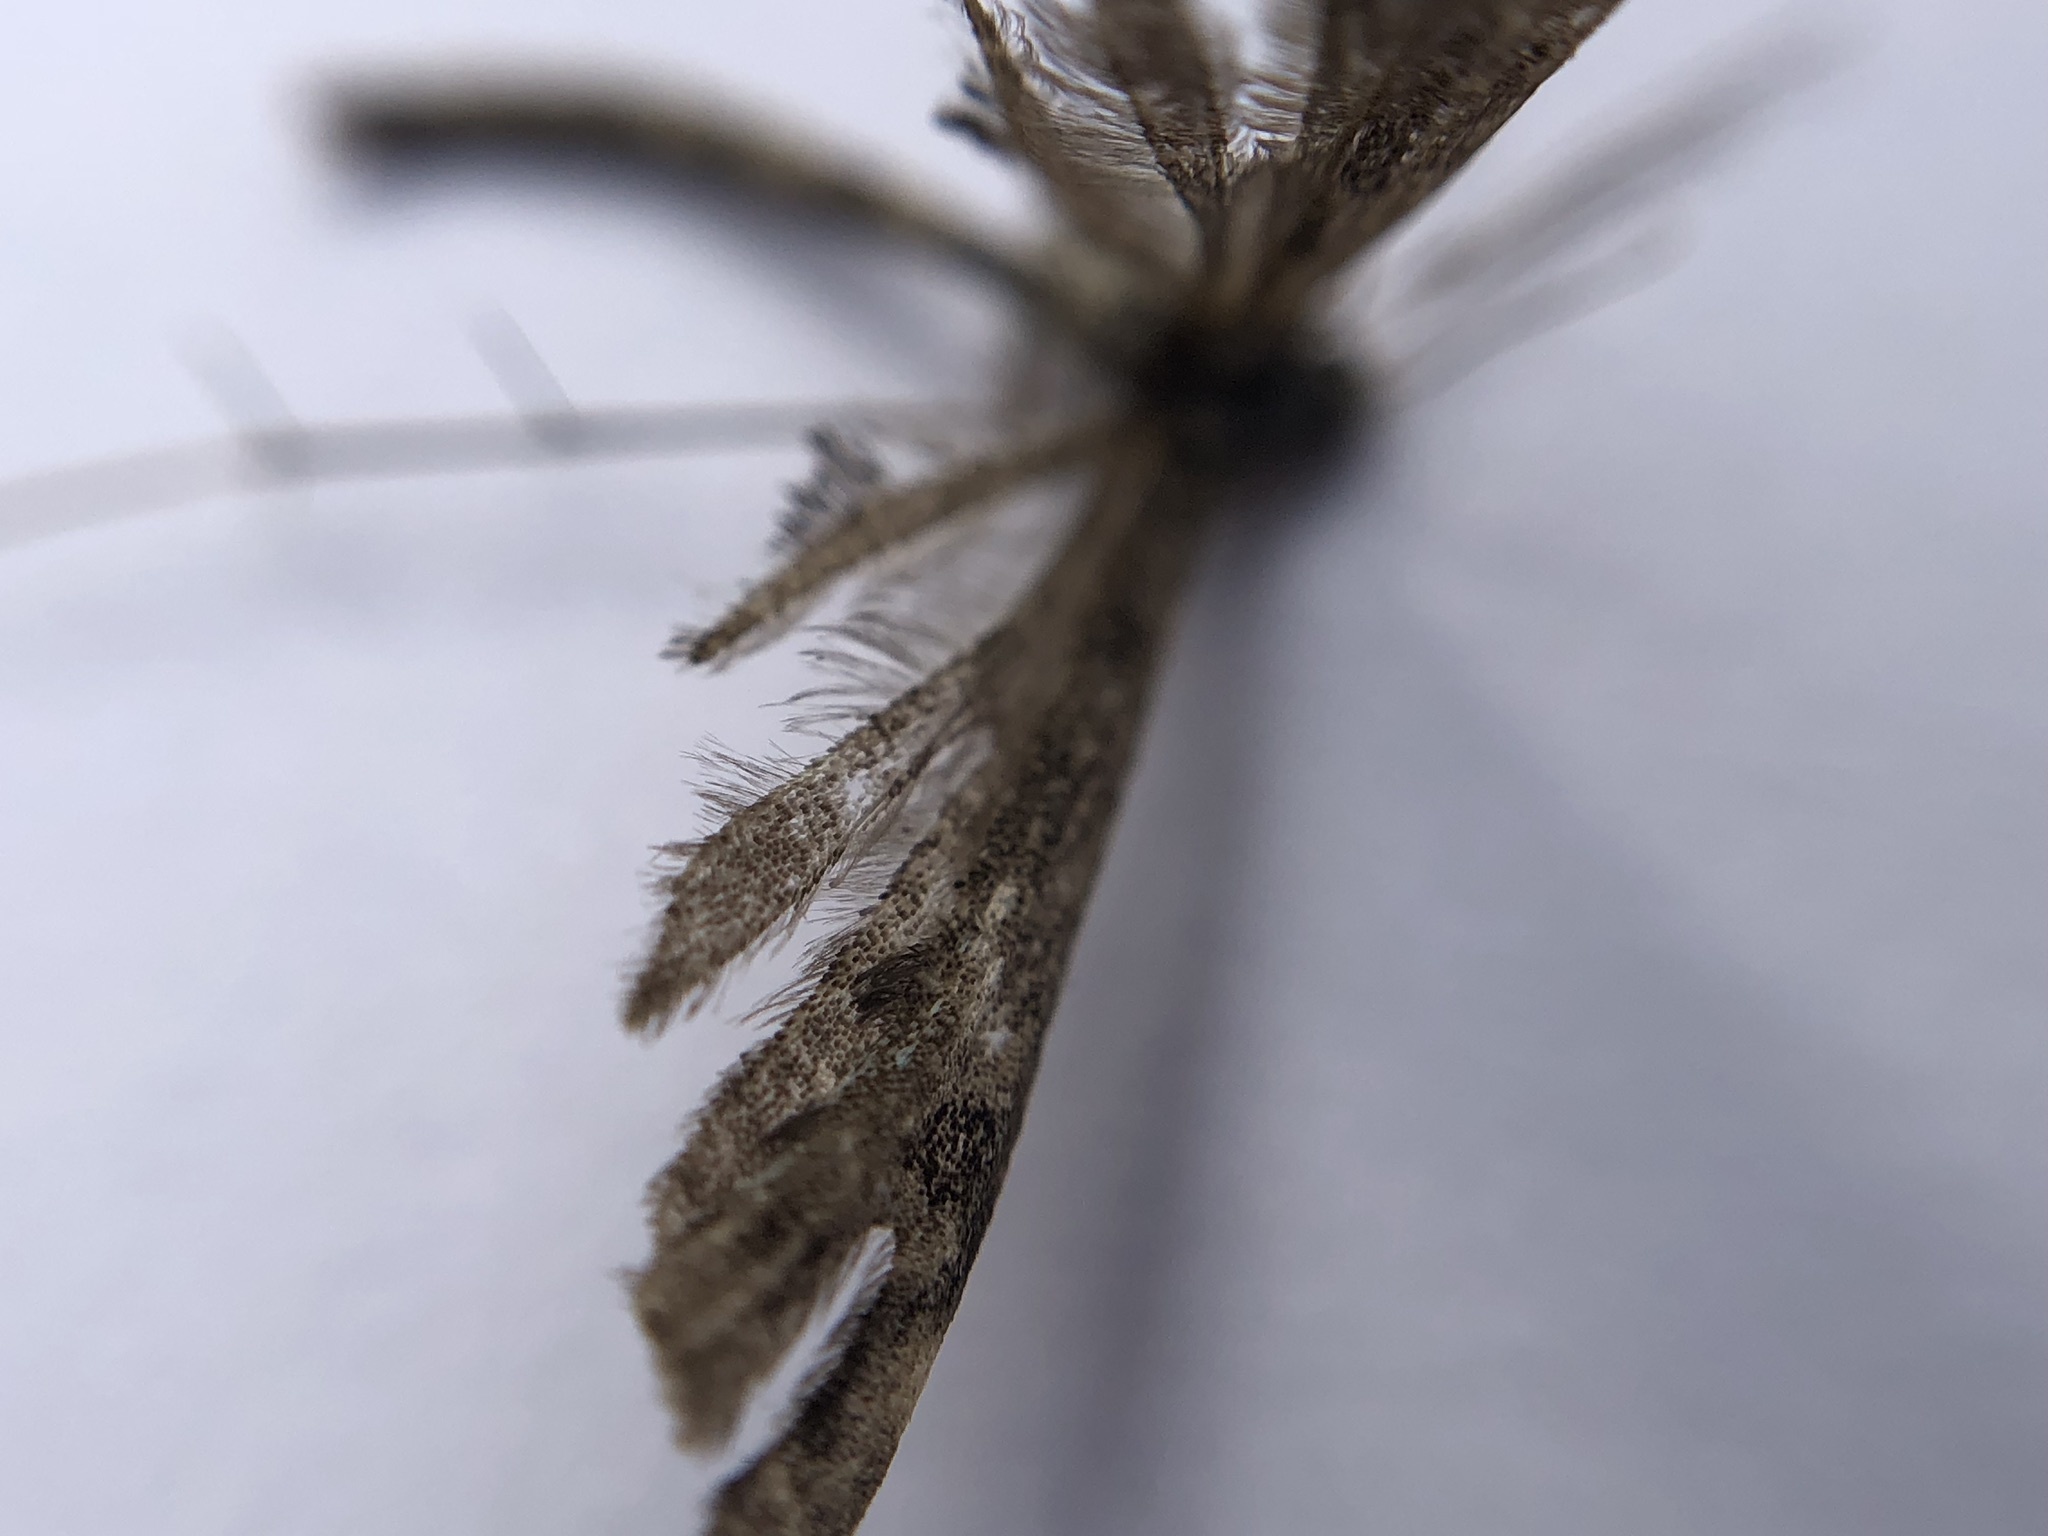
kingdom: Animalia
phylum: Arthropoda
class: Insecta
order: Lepidoptera
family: Pterophoridae
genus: Amblyptilia
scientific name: Amblyptilia pica
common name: Geranium plume moth
